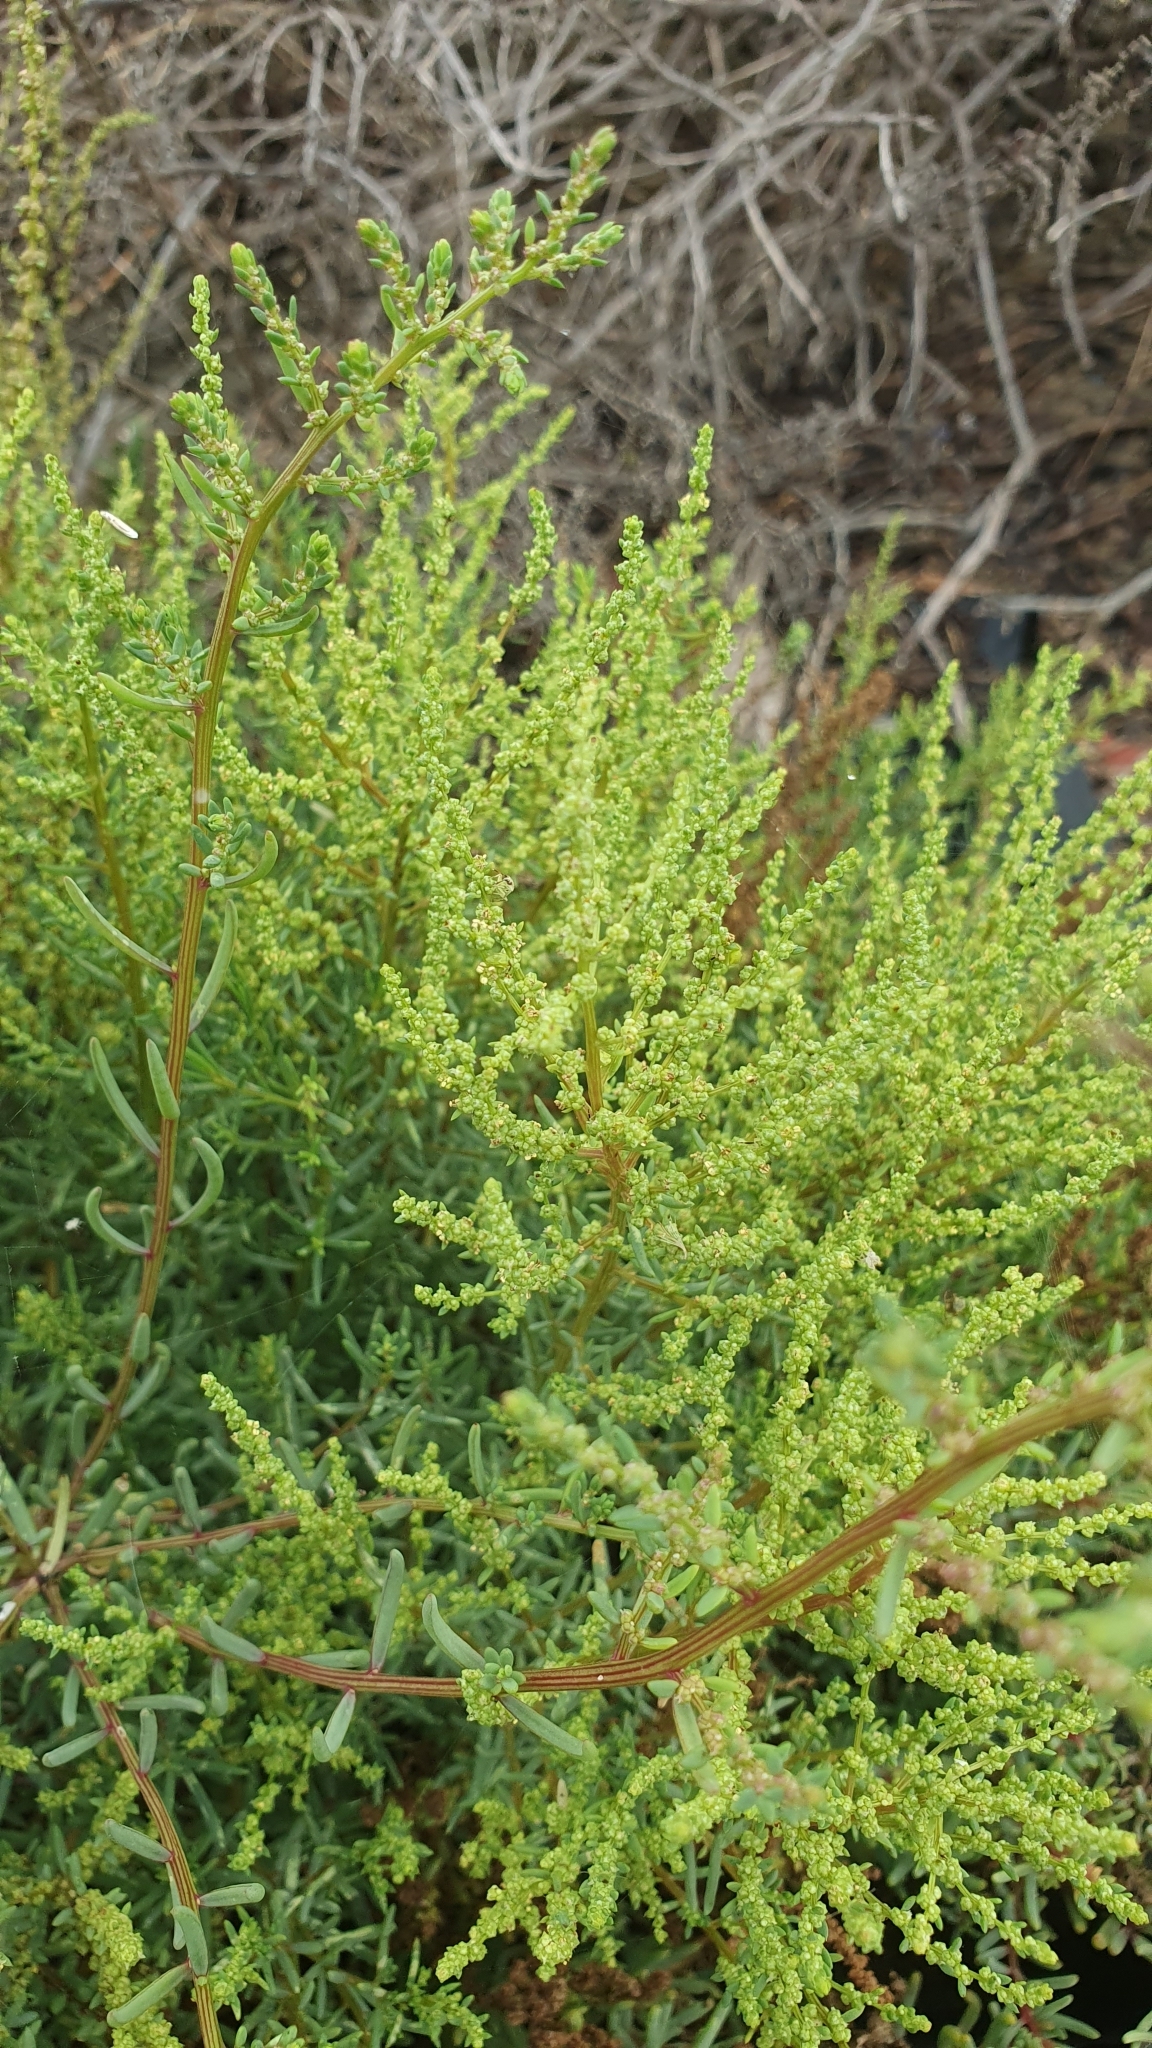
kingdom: Plantae
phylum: Tracheophyta
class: Magnoliopsida
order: Caryophyllales
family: Amaranthaceae
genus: Suaeda
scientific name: Suaeda maritima
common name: Annual sea-blite
